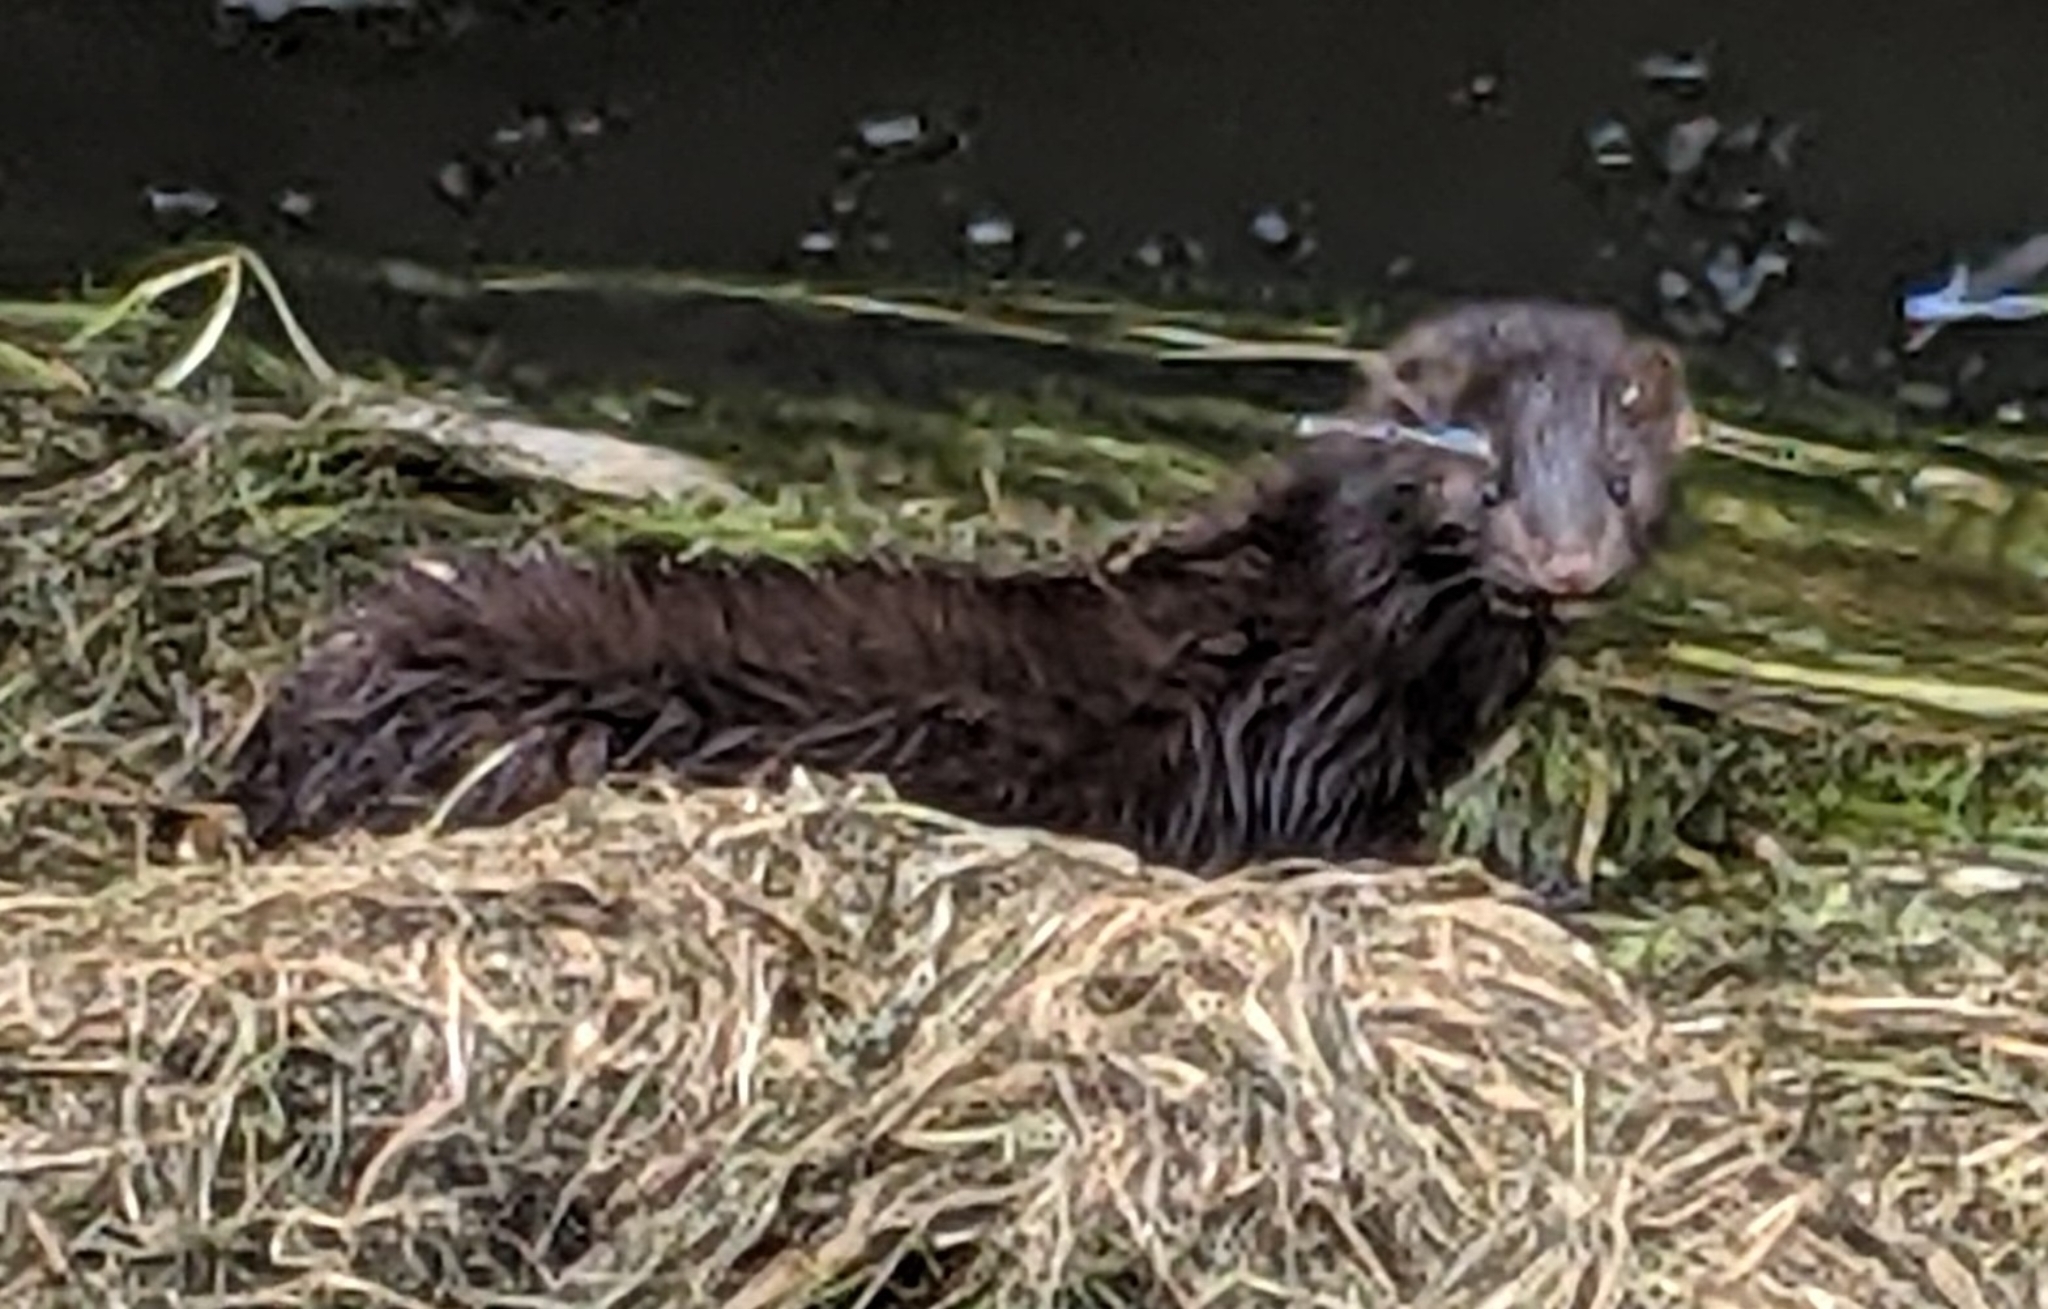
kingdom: Animalia
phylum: Chordata
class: Mammalia
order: Carnivora
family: Mustelidae
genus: Mustela
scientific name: Mustela
